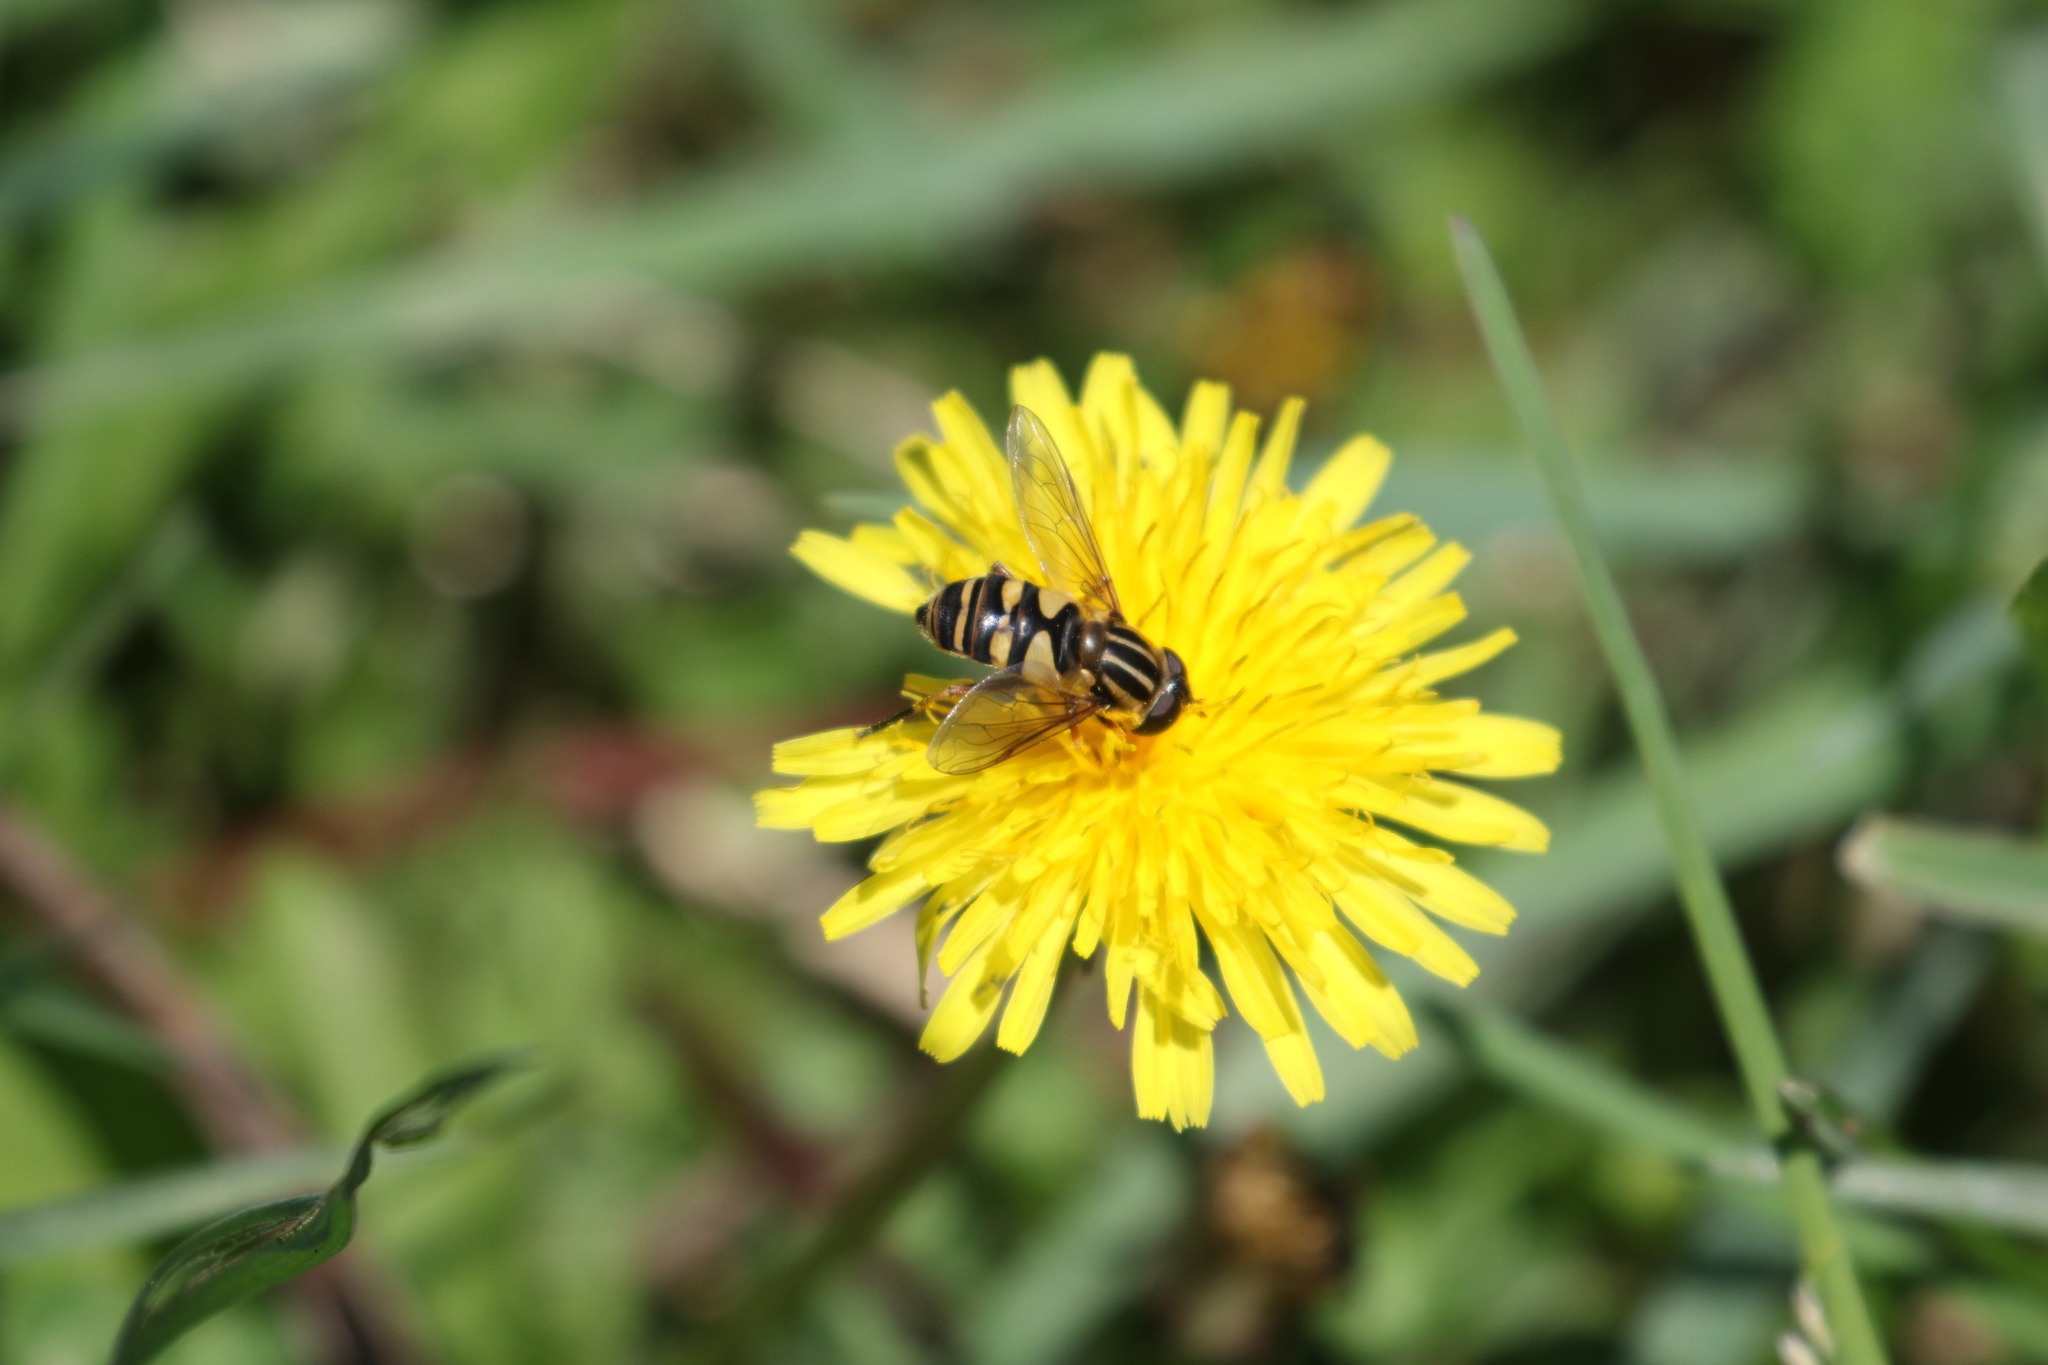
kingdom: Animalia
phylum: Arthropoda
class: Insecta
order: Diptera
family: Syrphidae
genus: Helophilus
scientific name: Helophilus fasciatus
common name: Narrow-headed marsh fly
